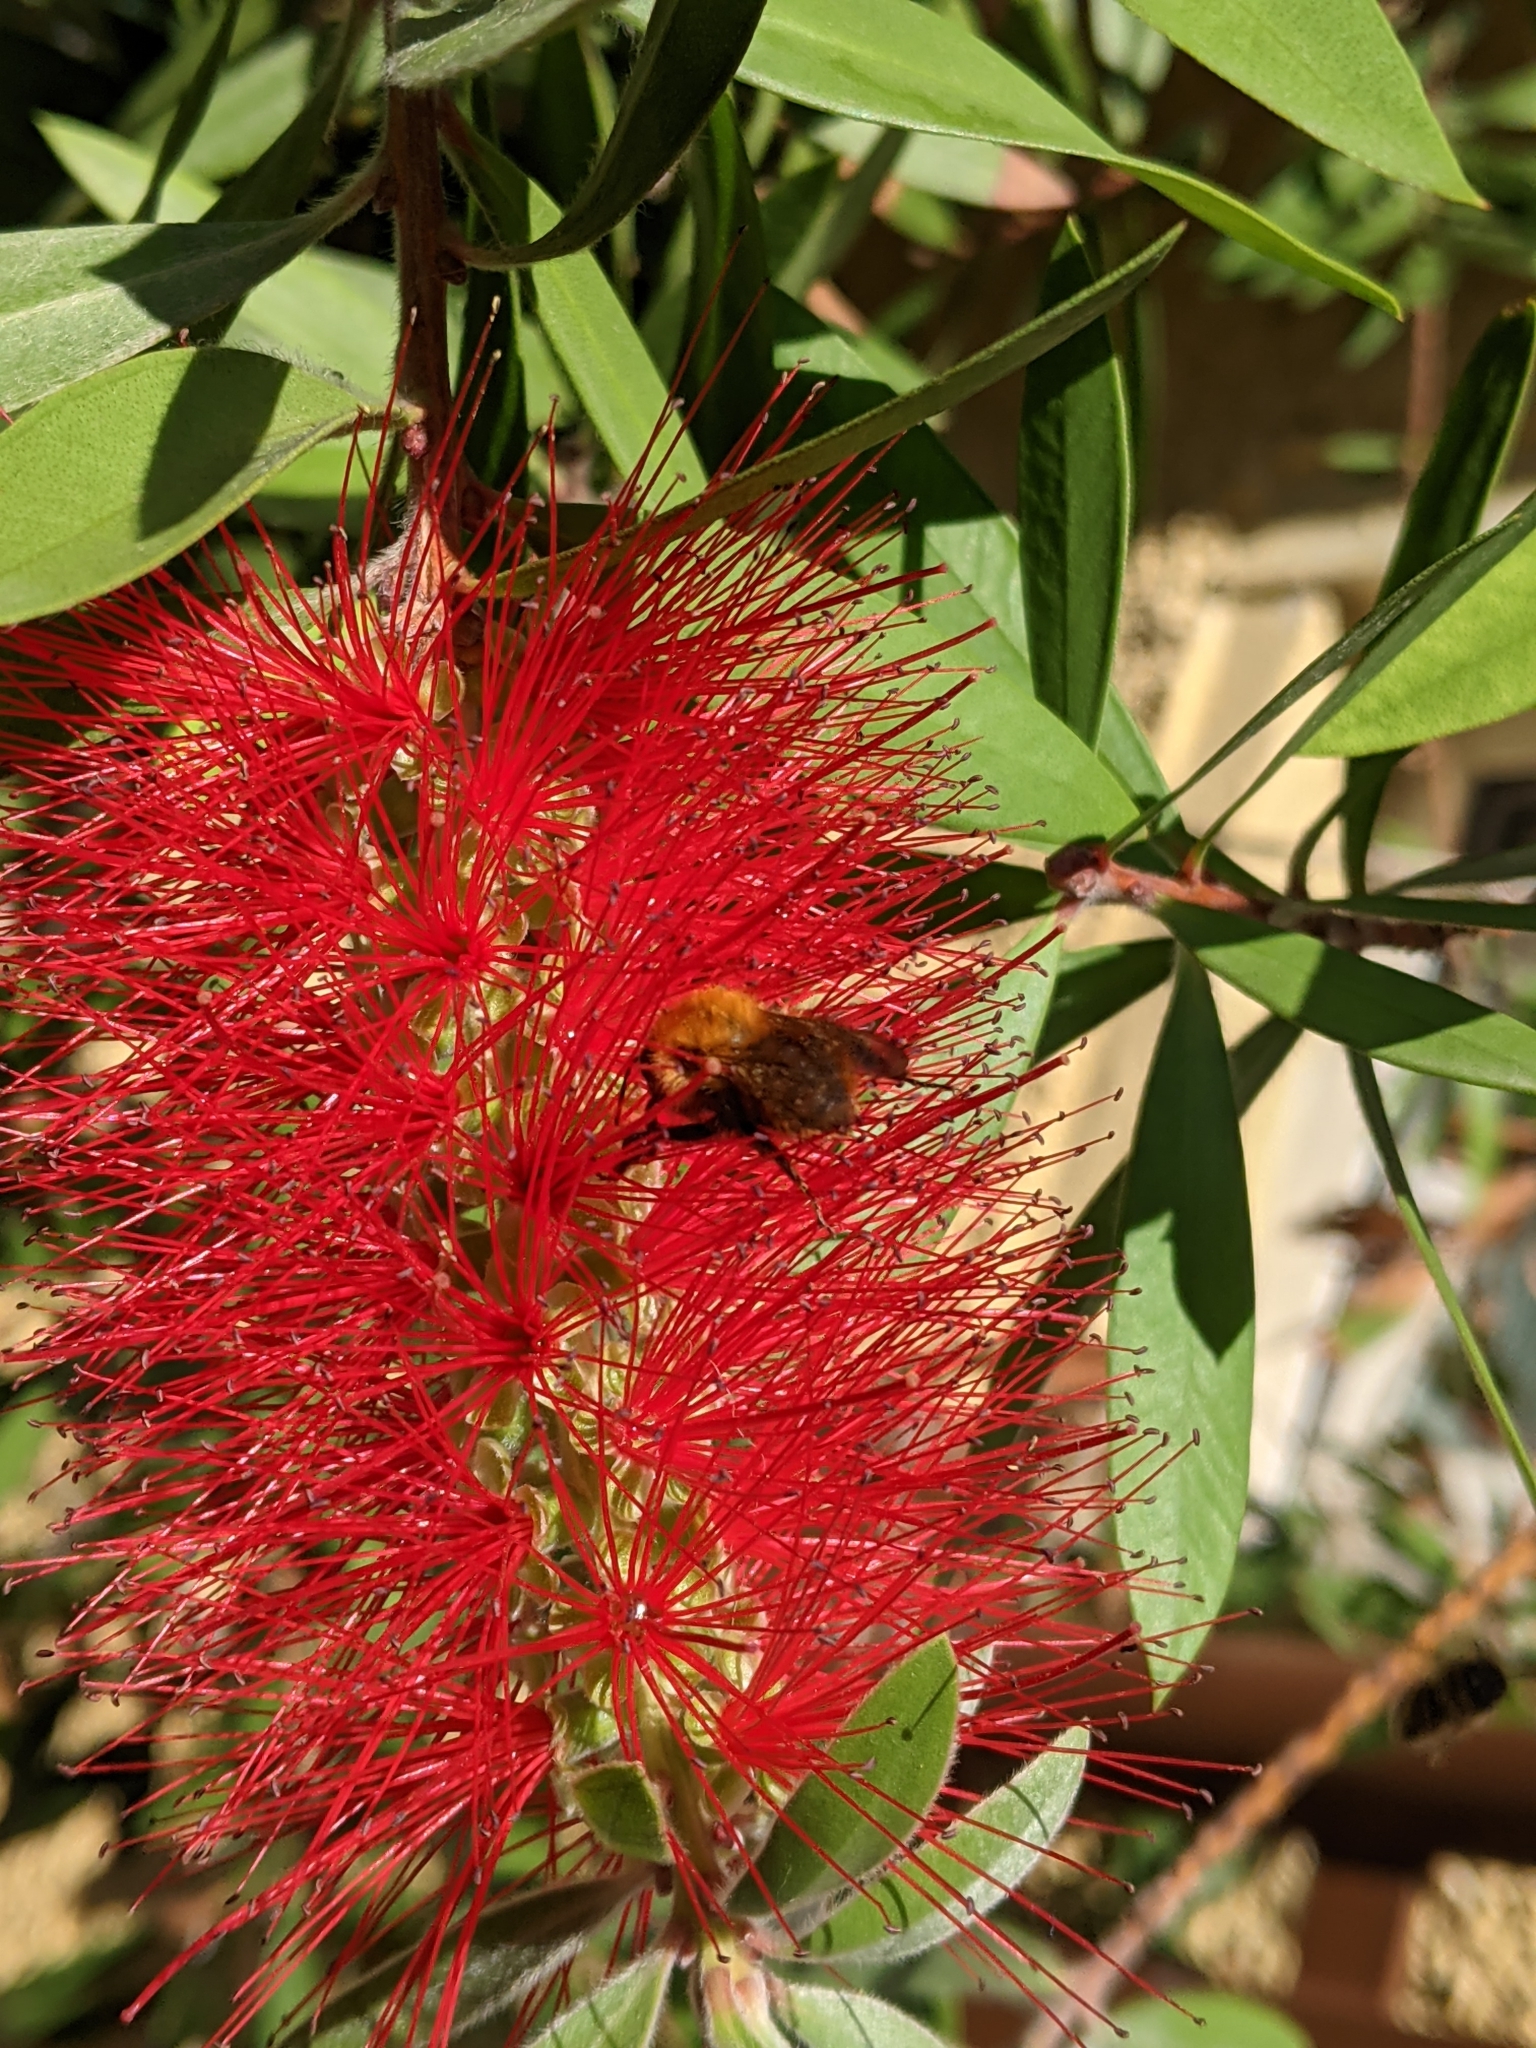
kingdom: Animalia
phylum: Arthropoda
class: Insecta
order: Hymenoptera
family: Apidae
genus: Bombus
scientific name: Bombus pascuorum
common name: Common carder bee
